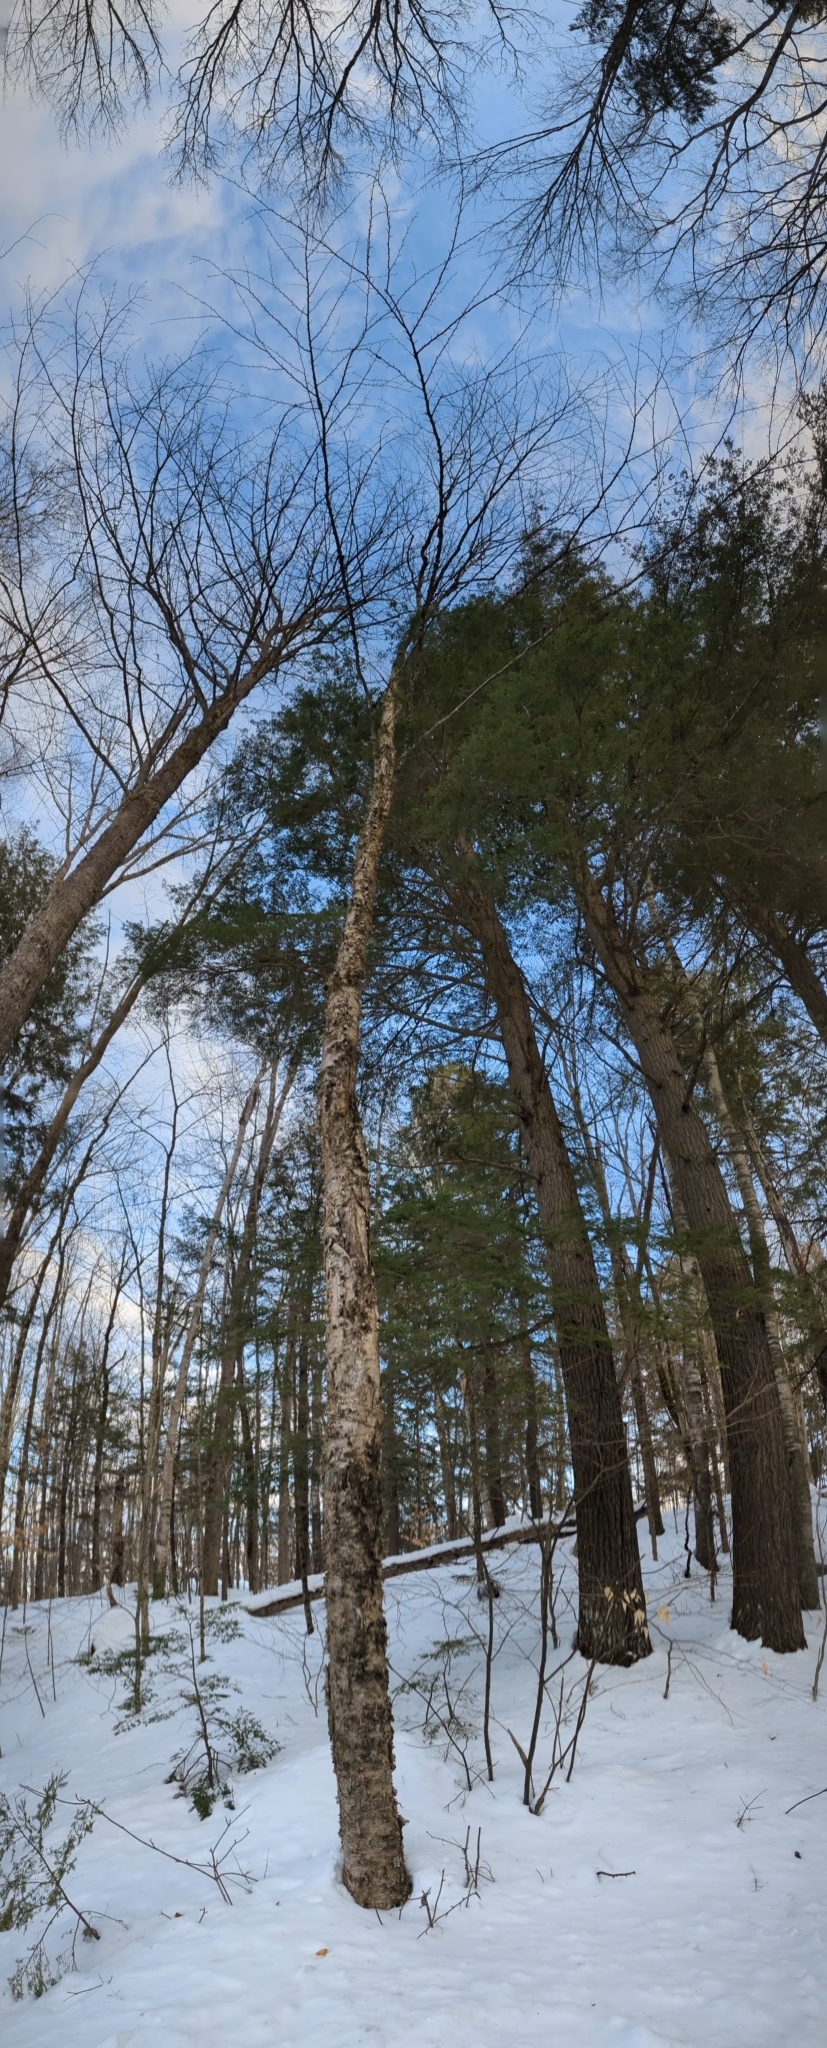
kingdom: Plantae
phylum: Tracheophyta
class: Magnoliopsida
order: Fagales
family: Betulaceae
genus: Betula
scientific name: Betula alleghaniensis
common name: Yellow birch
